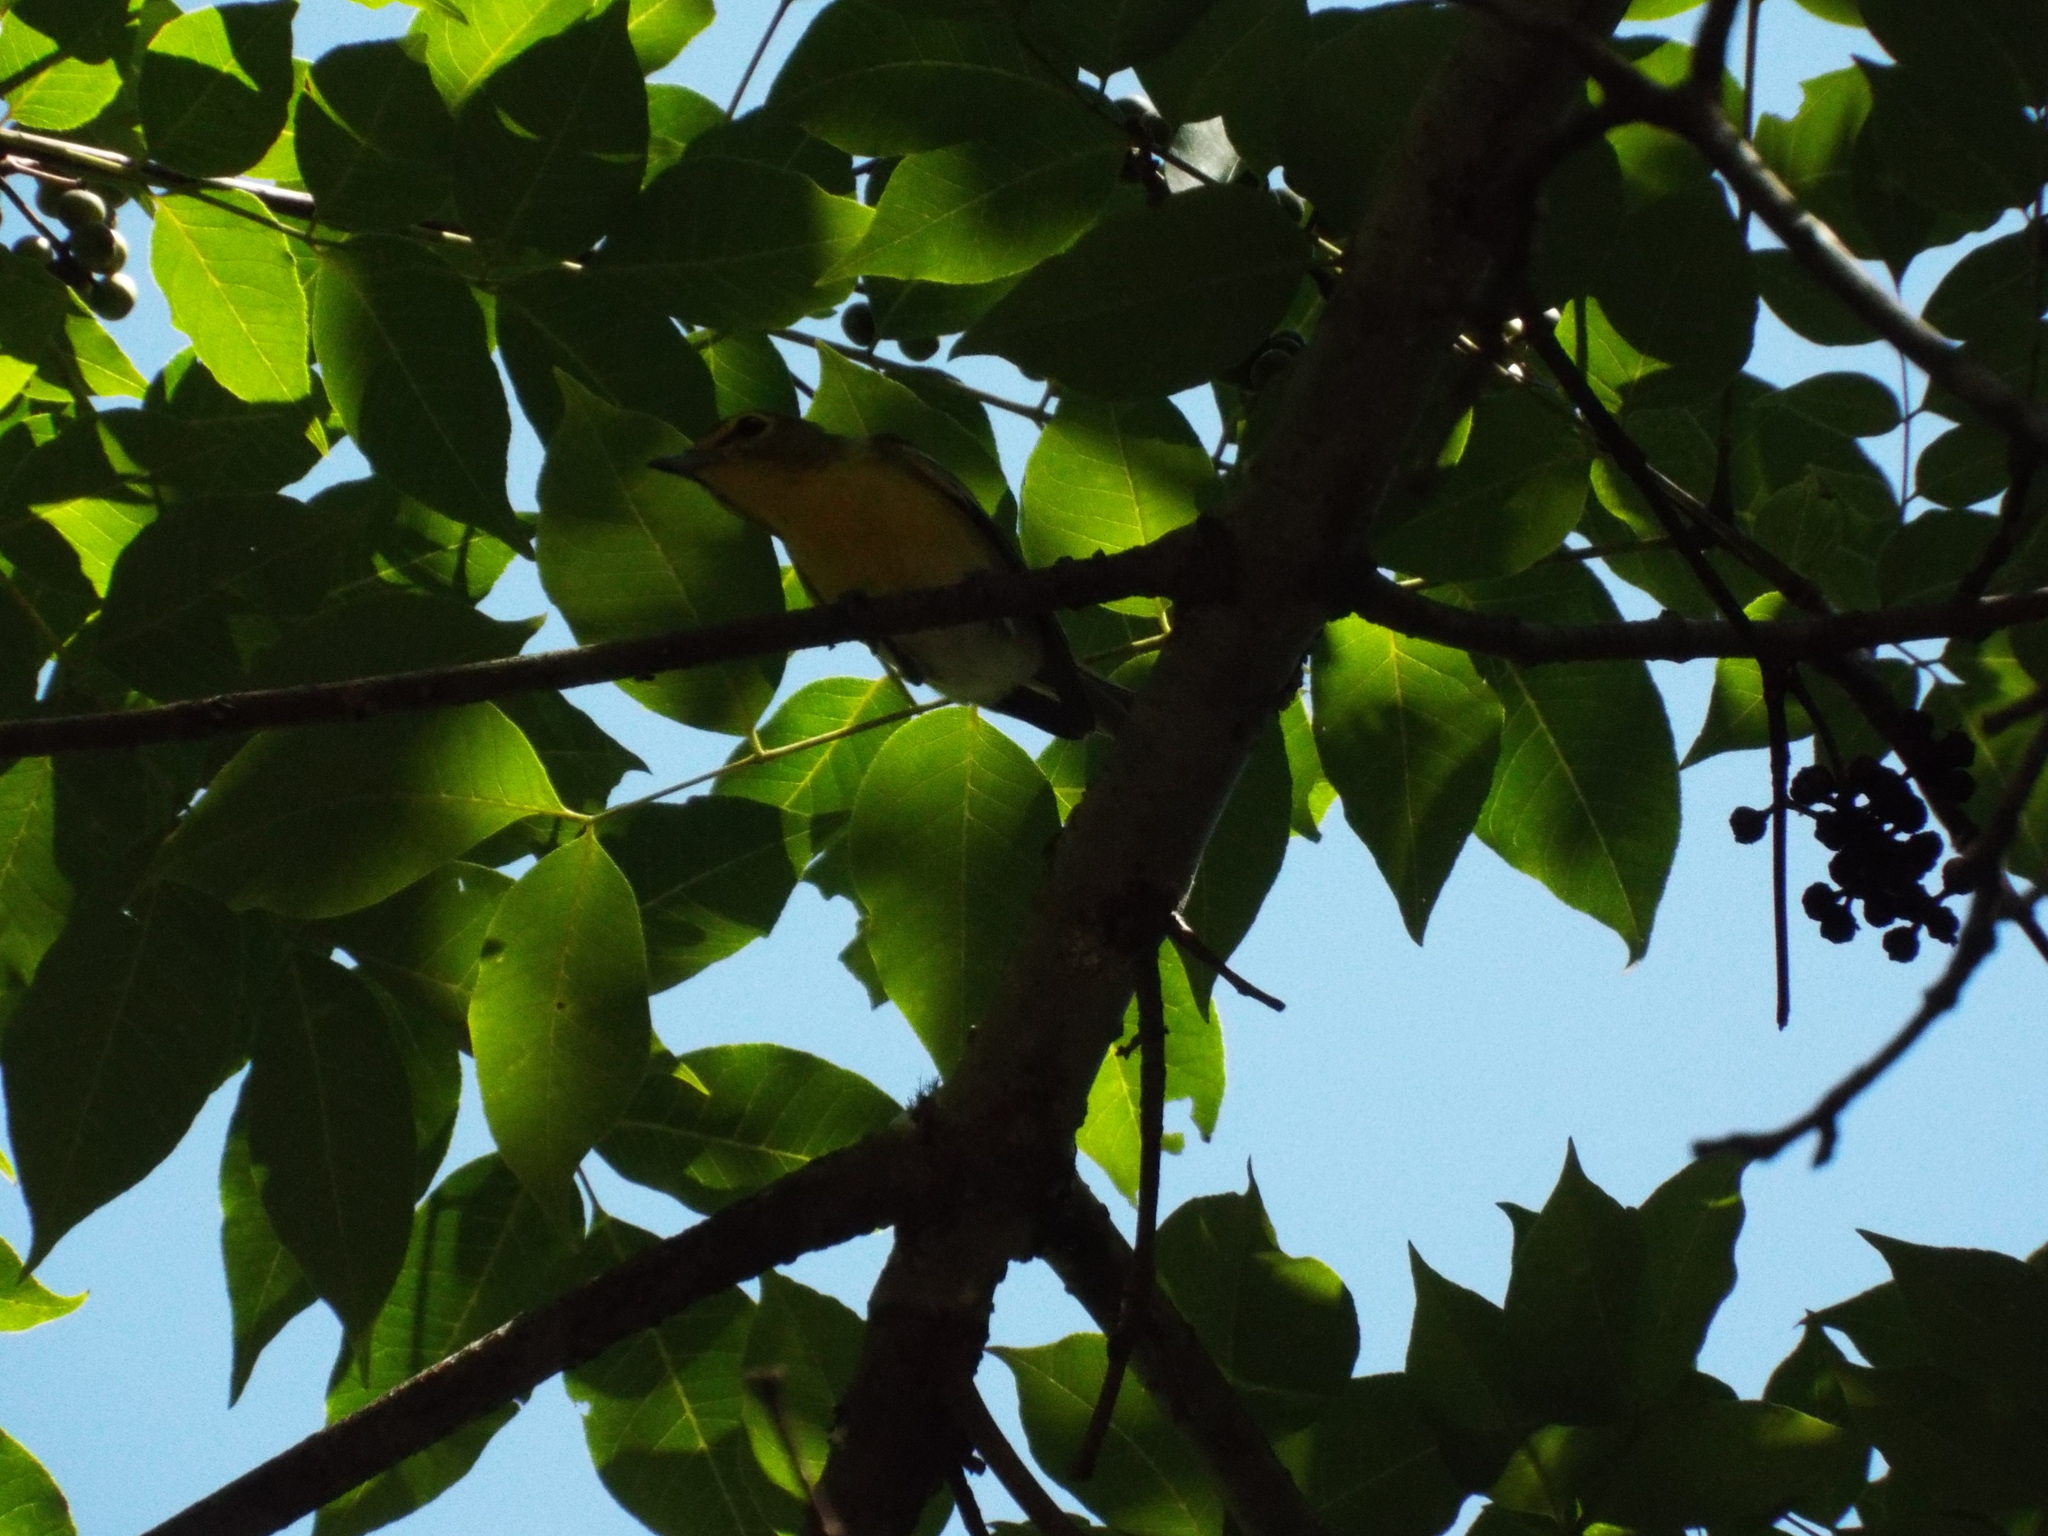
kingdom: Animalia
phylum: Chordata
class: Aves
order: Passeriformes
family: Vireonidae
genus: Vireo
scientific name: Vireo flavifrons
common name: Yellow-throated vireo
